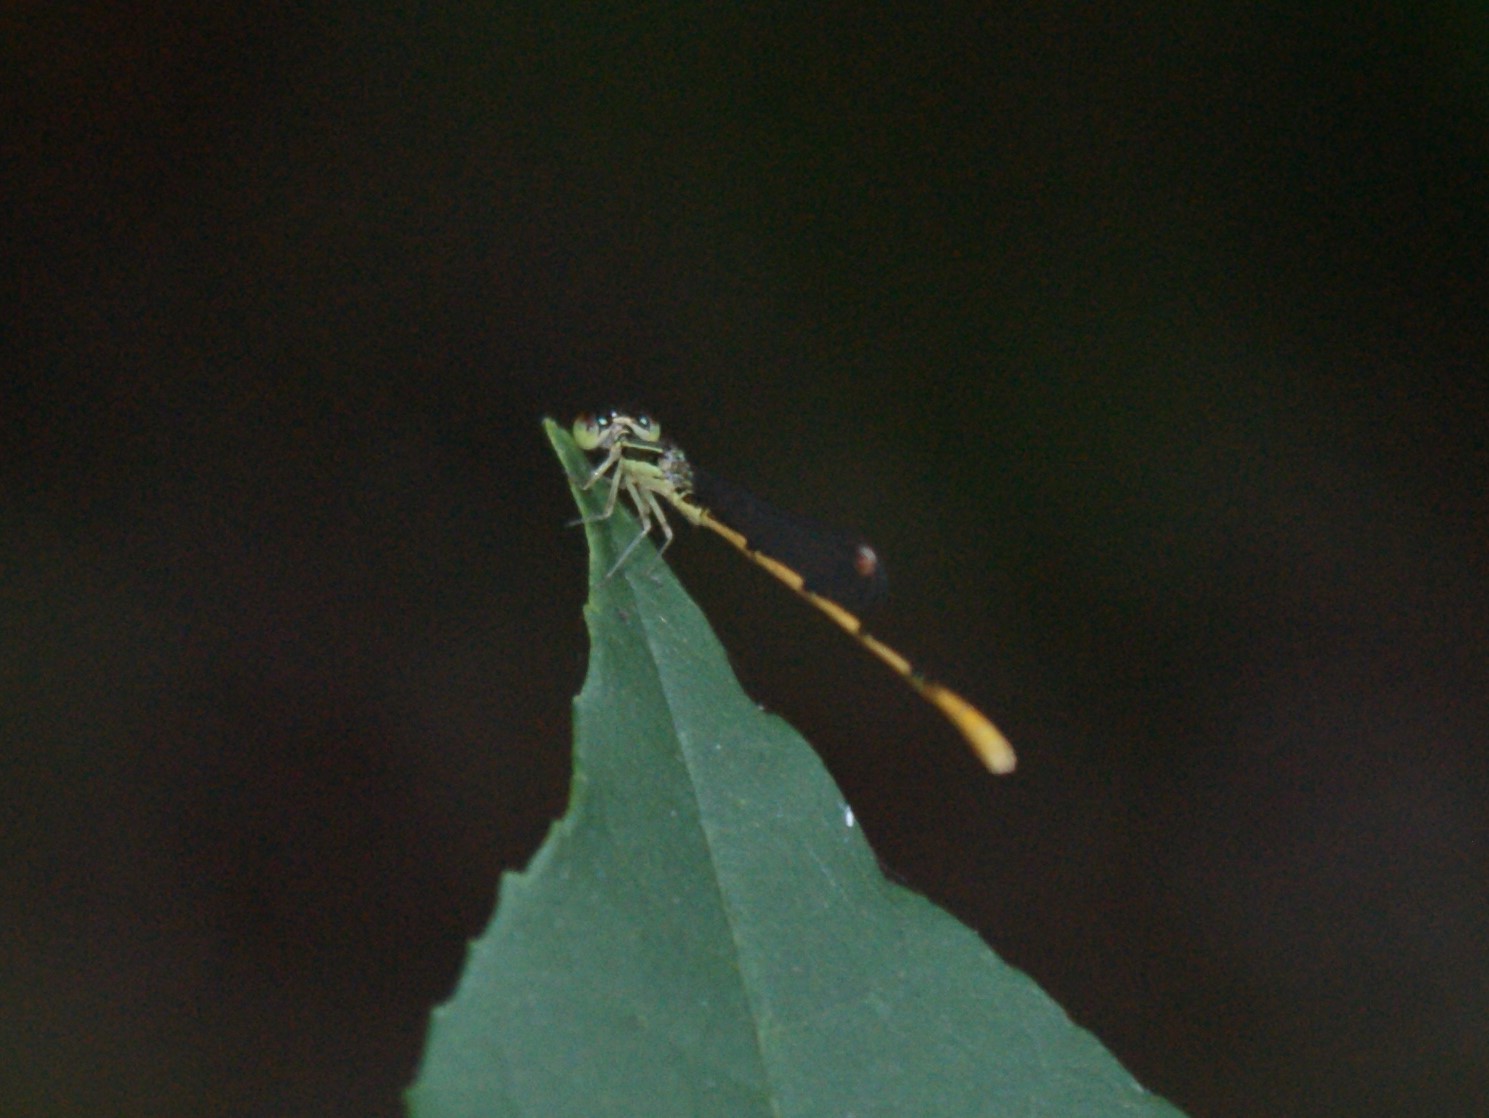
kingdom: Animalia
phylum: Arthropoda
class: Insecta
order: Odonata
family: Coenagrionidae
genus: Ischnura
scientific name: Ischnura hastata
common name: Citrine forktail
